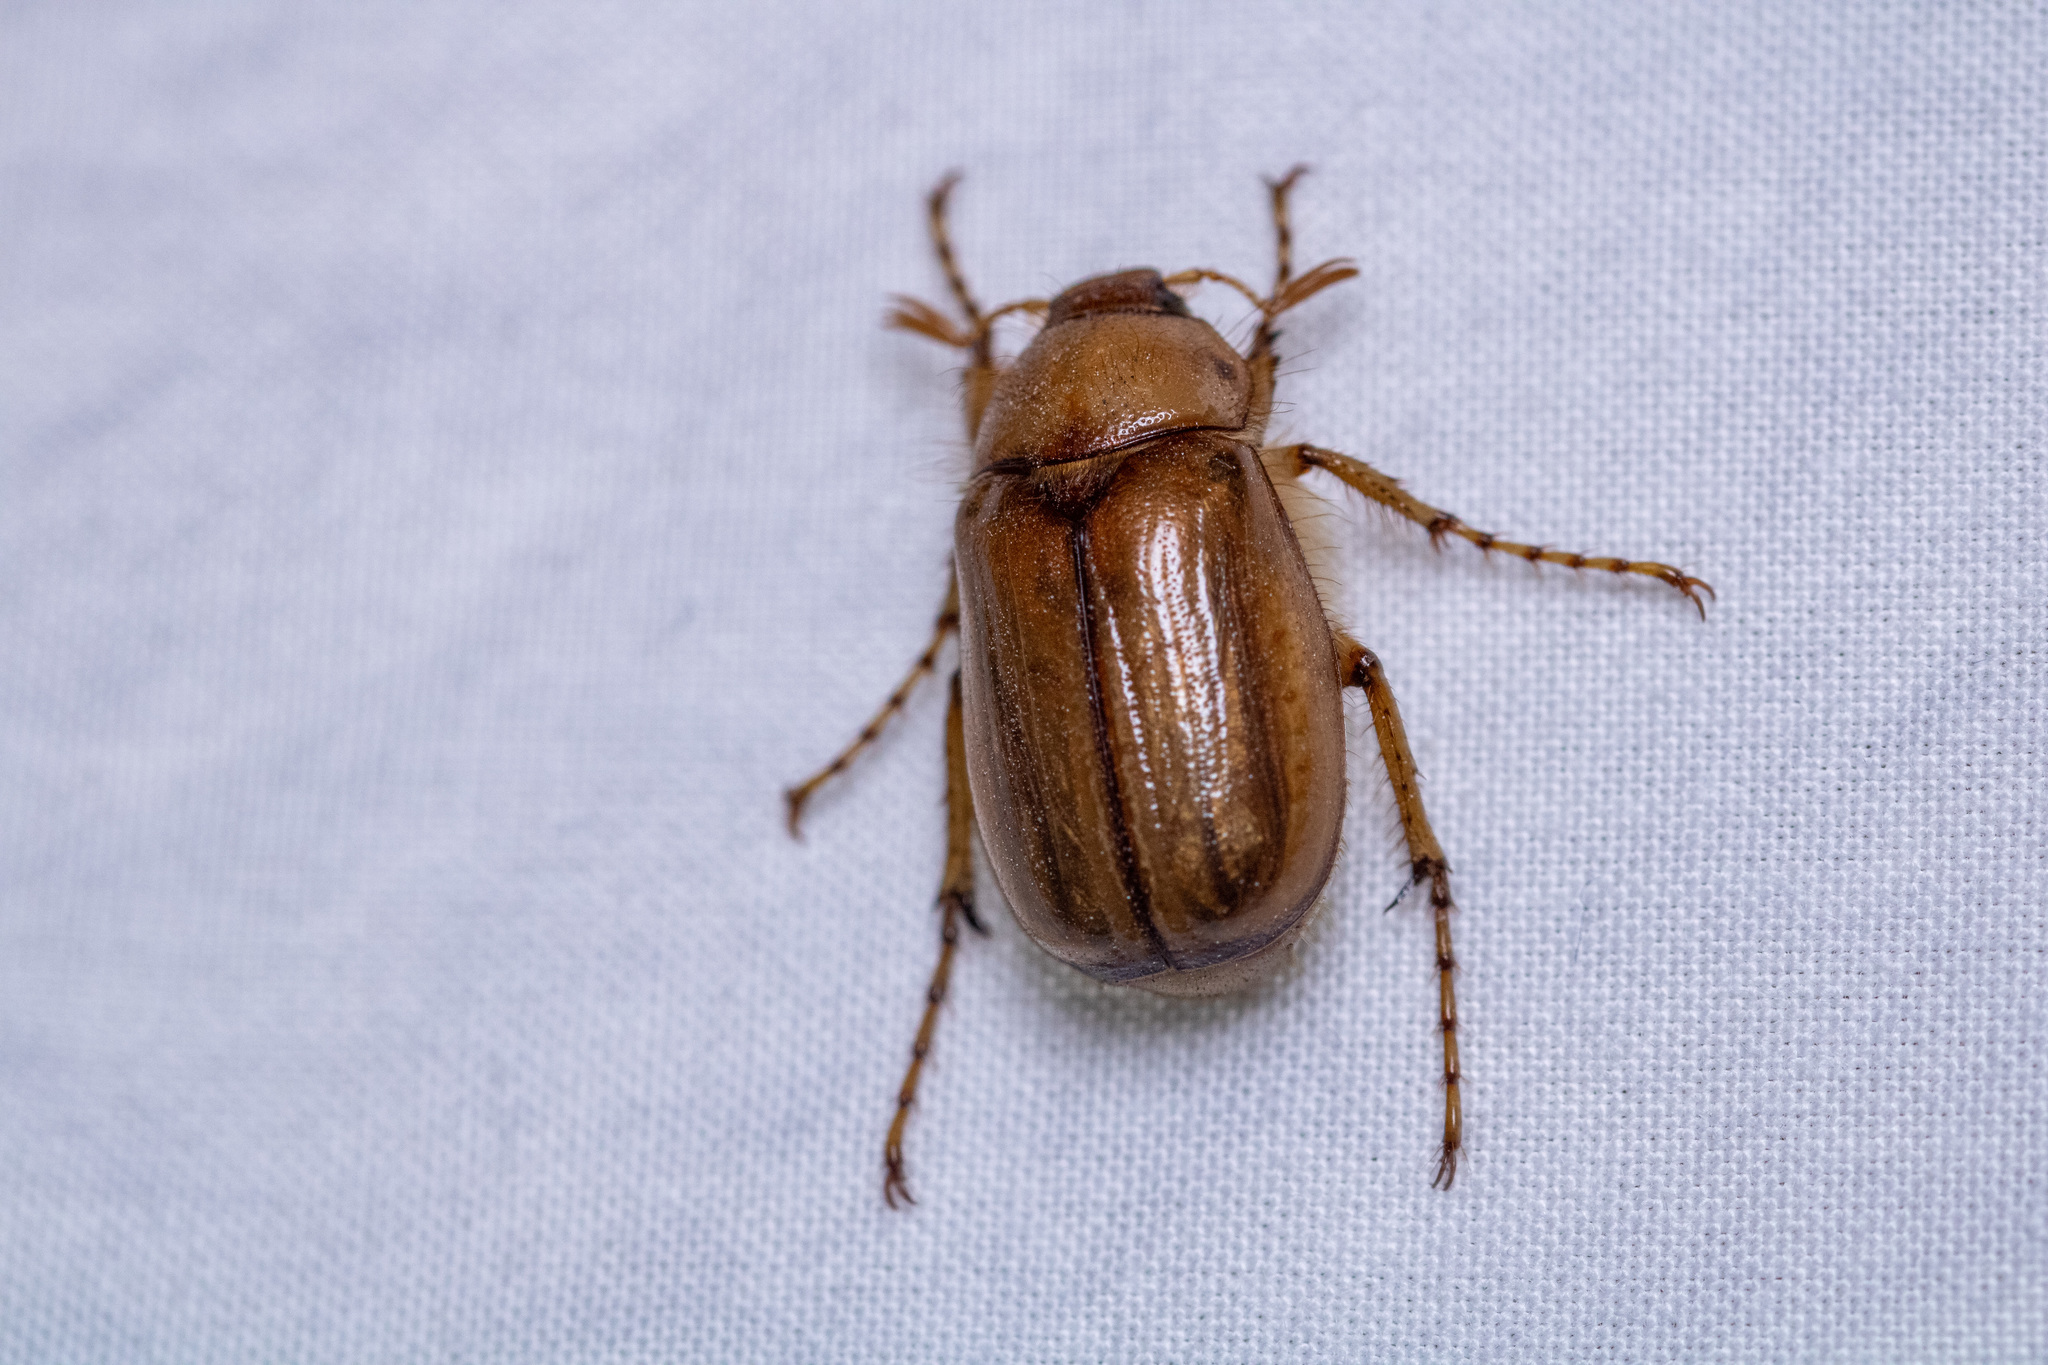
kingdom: Animalia
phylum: Arthropoda
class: Insecta
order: Coleoptera
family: Scarabaeidae
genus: Amphimallon
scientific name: Amphimallon majale
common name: European chafer
